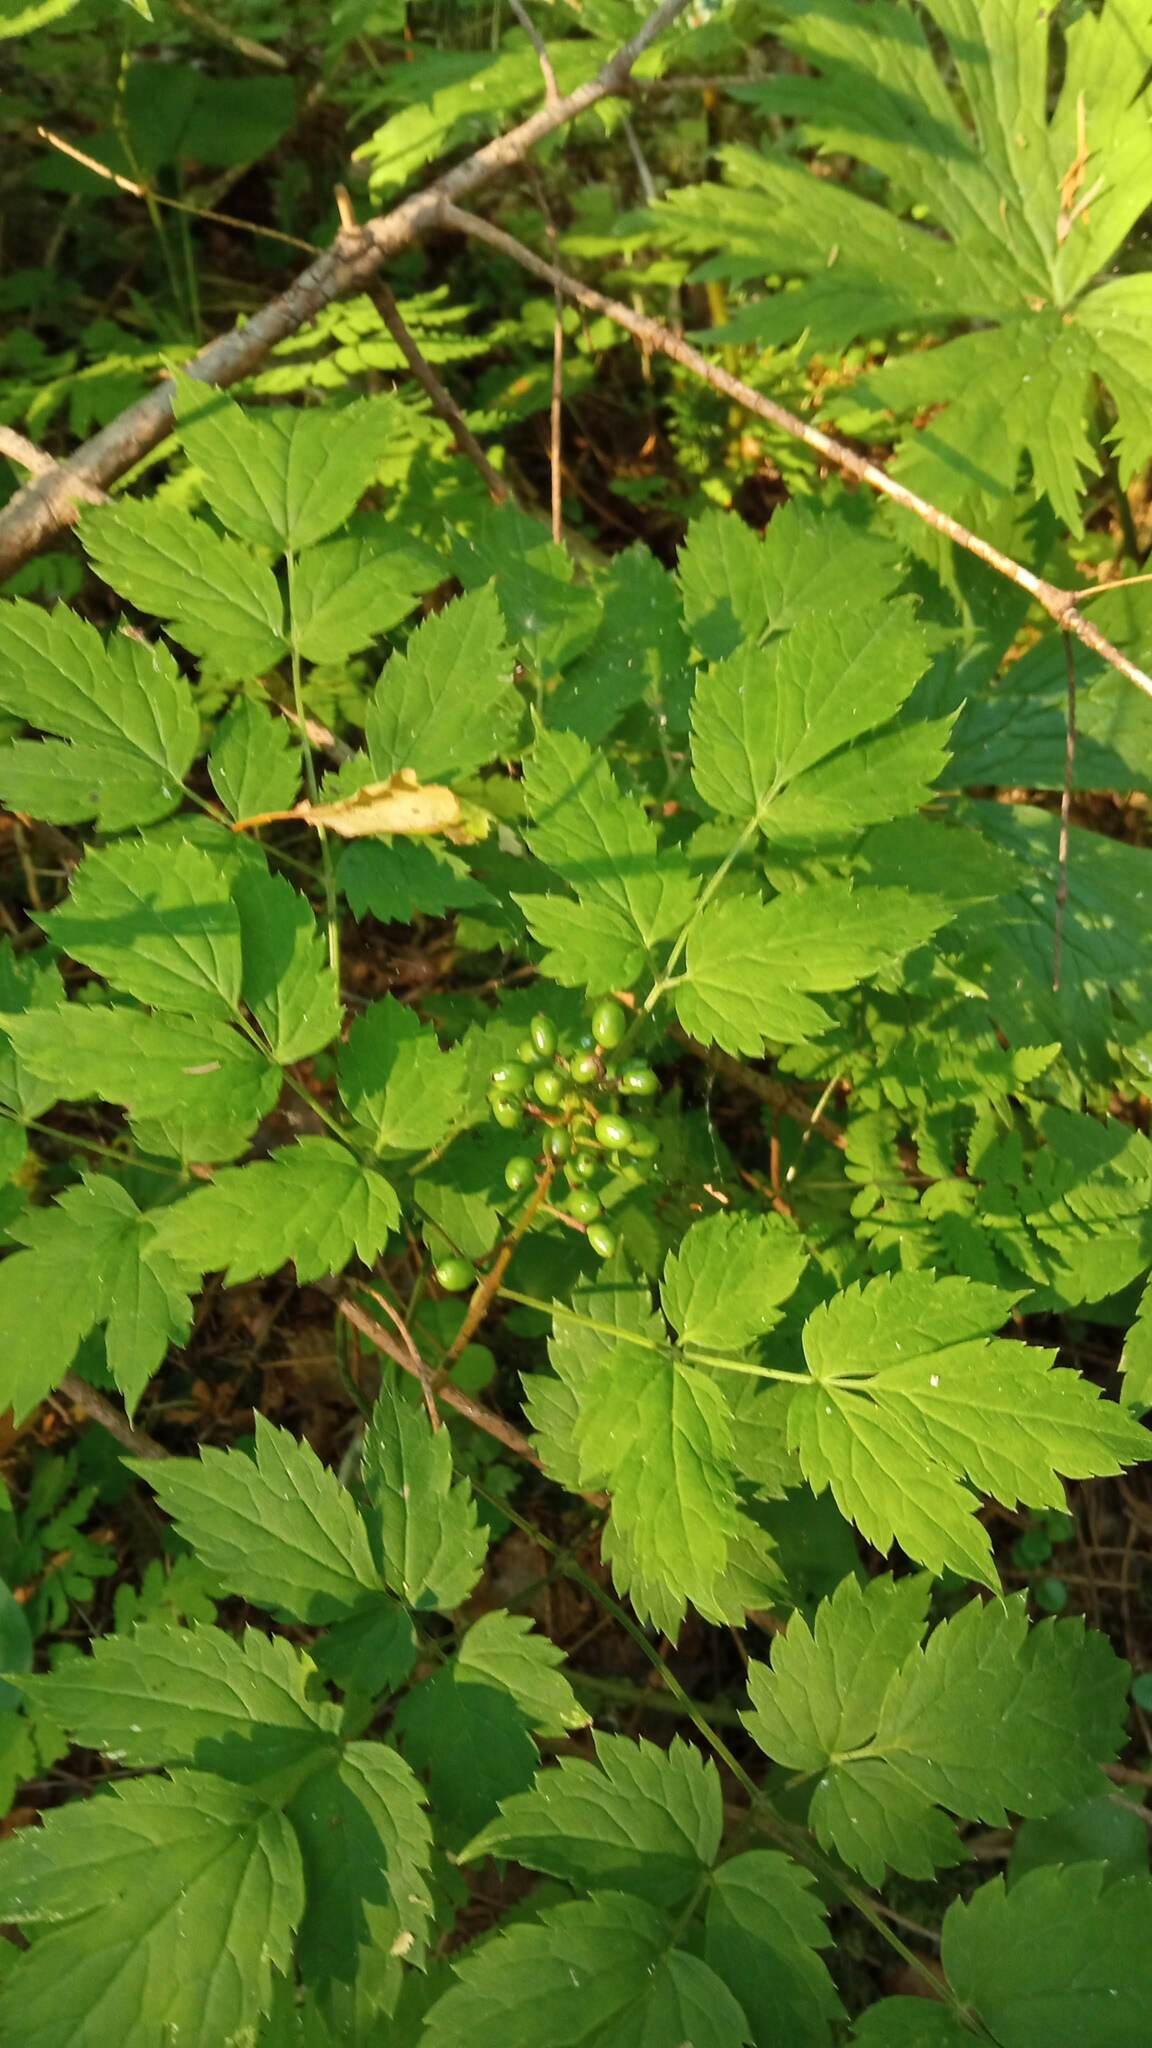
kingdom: Plantae
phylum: Tracheophyta
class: Magnoliopsida
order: Ranunculales
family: Ranunculaceae
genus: Actaea
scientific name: Actaea erythrocarpa
